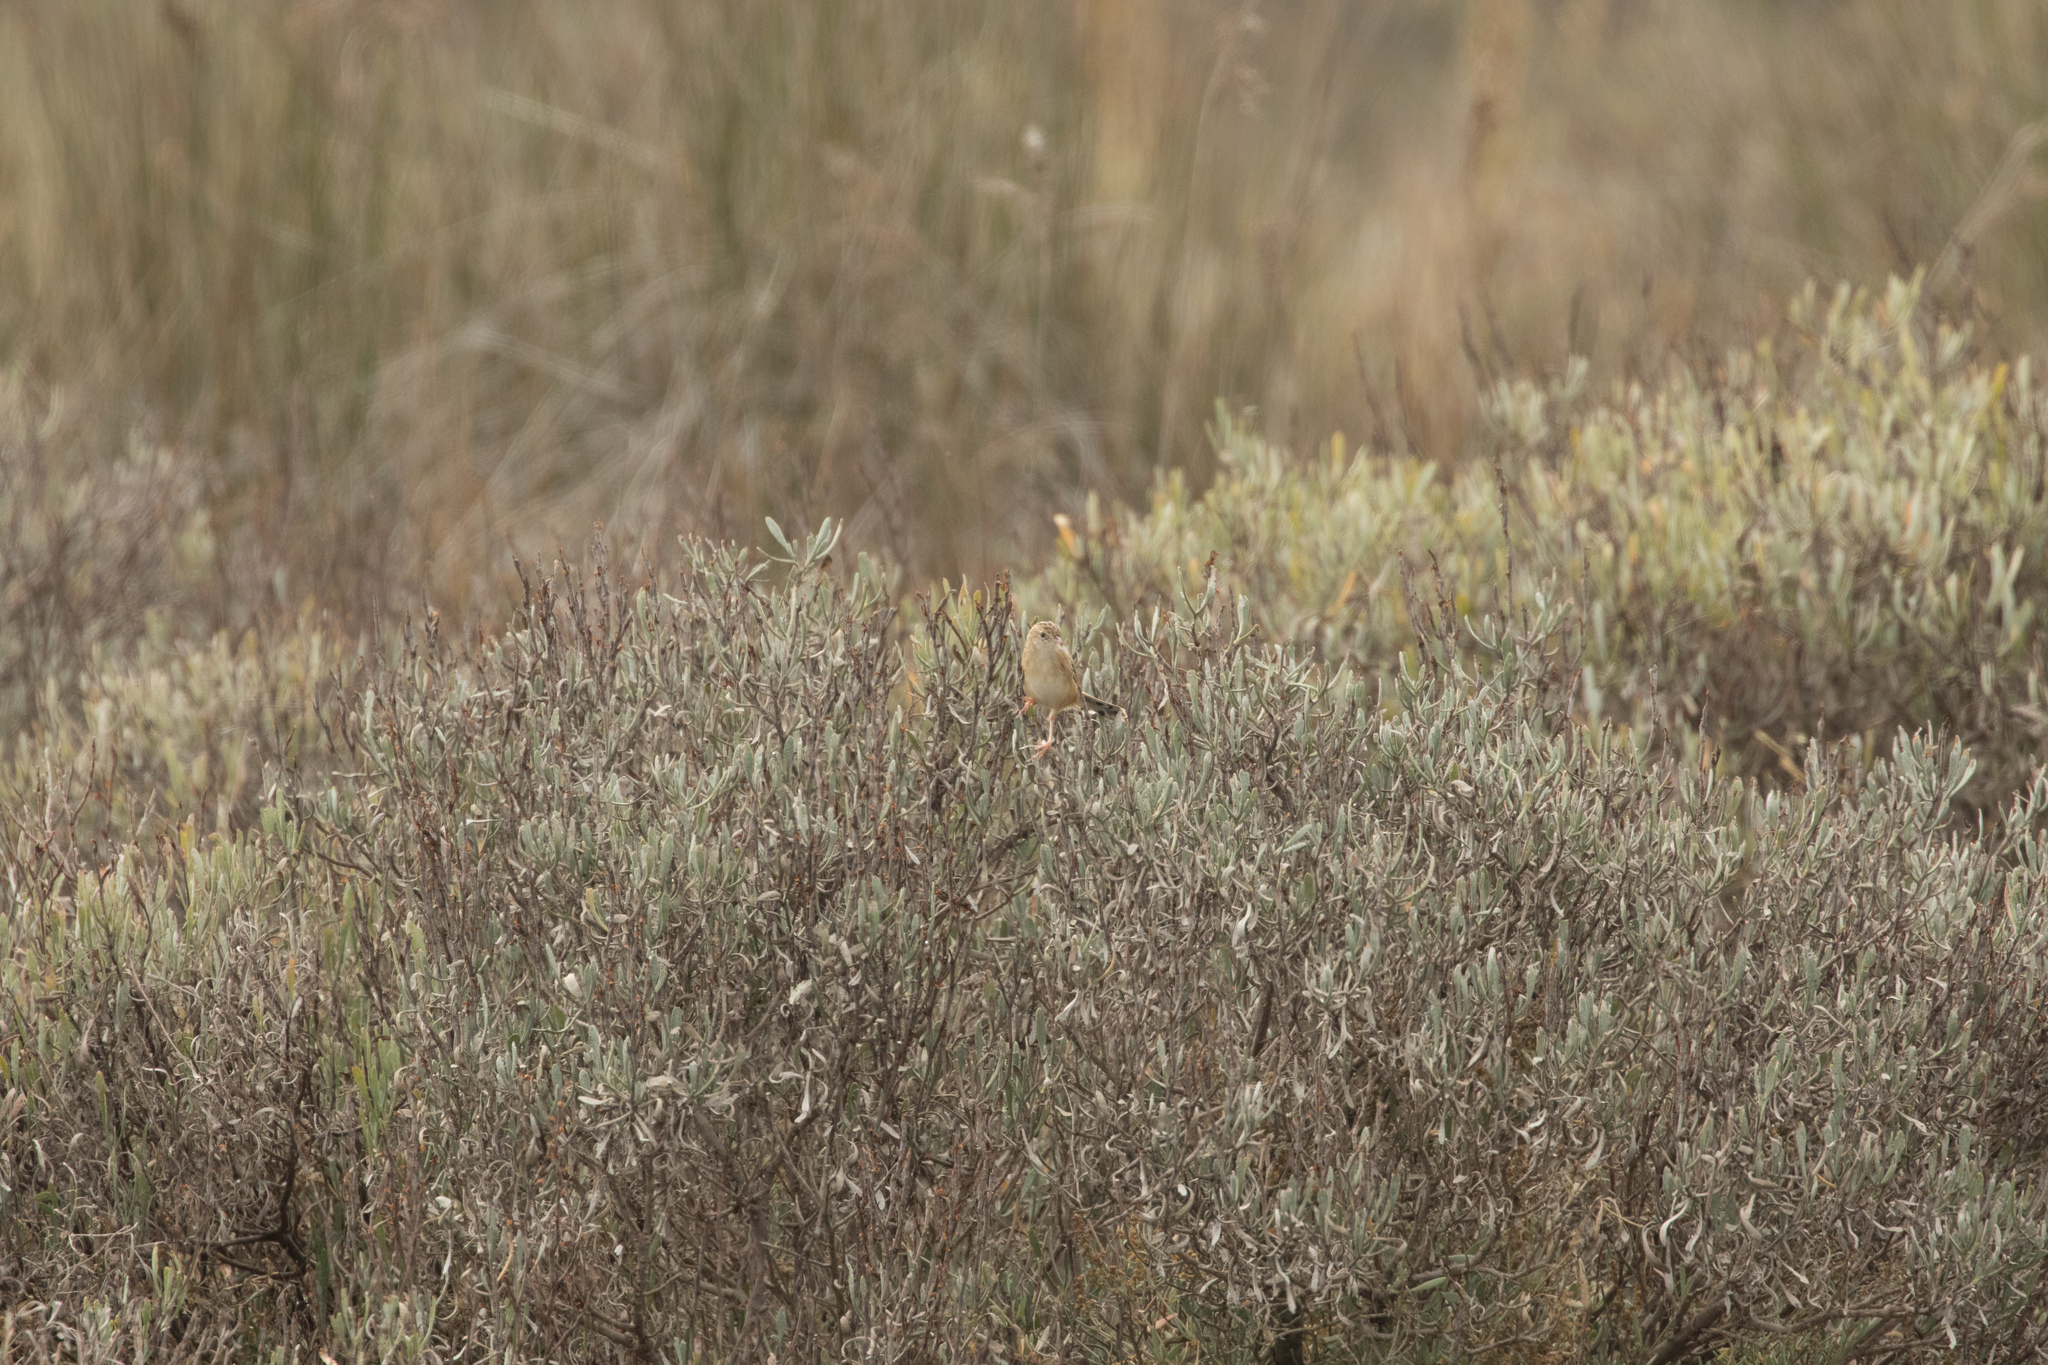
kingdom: Animalia
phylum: Chordata
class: Aves
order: Passeriformes
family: Cisticolidae
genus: Cisticola
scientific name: Cisticola juncidis
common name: Zitting cisticola
